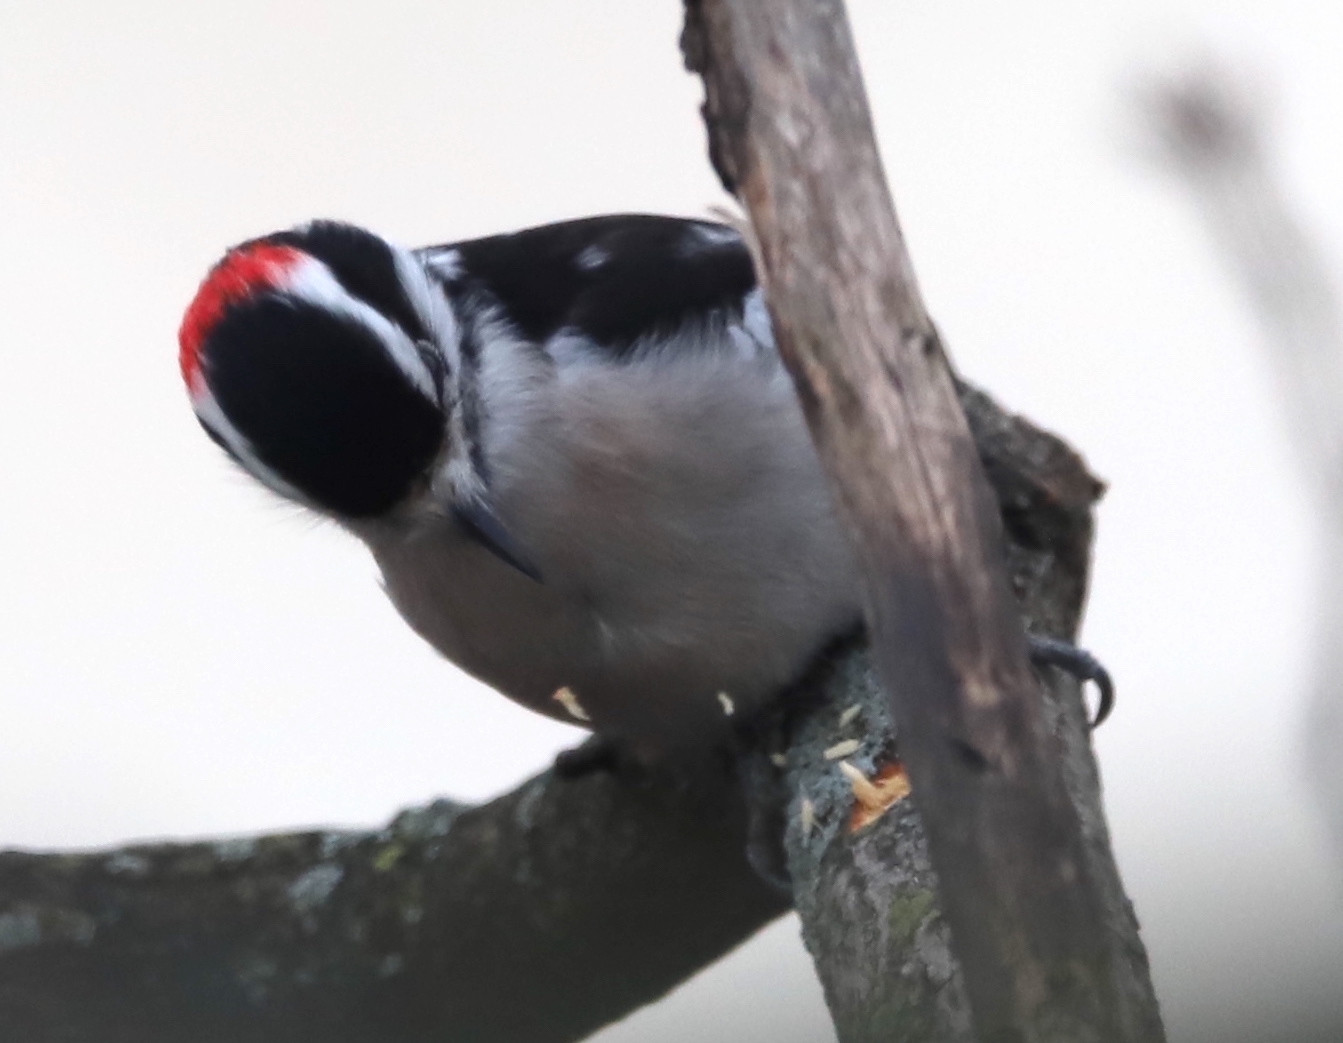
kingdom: Animalia
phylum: Chordata
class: Aves
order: Piciformes
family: Picidae
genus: Leuconotopicus
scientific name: Leuconotopicus villosus
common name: Hairy woodpecker
